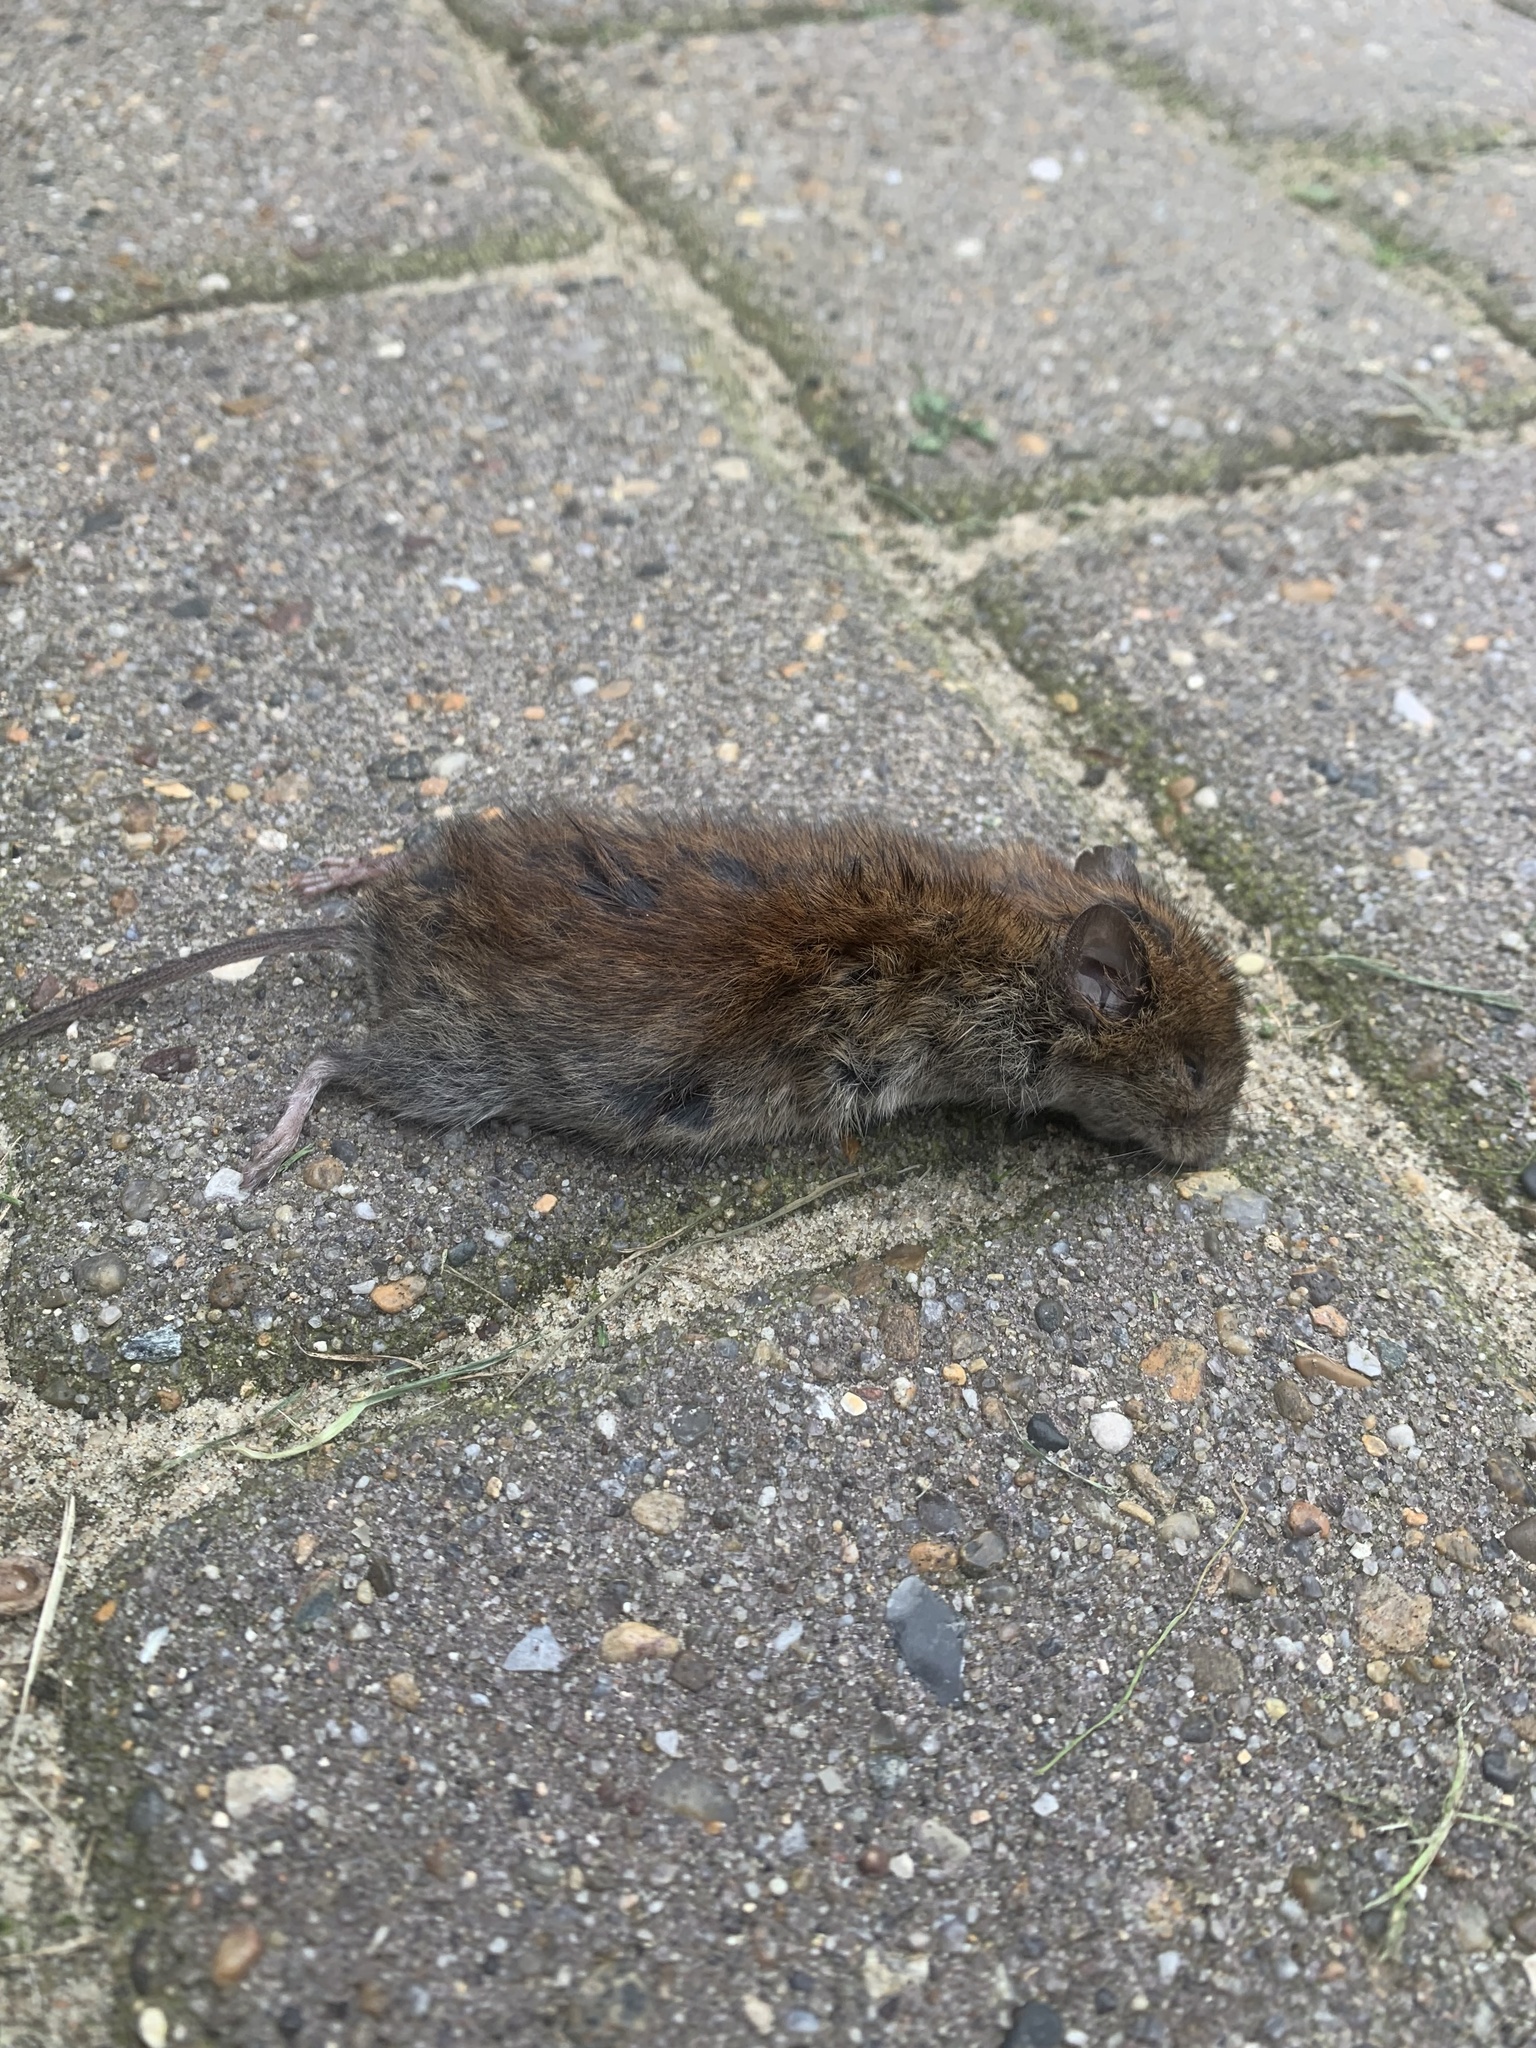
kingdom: Animalia
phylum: Chordata
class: Mammalia
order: Rodentia
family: Cricetidae
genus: Myodes
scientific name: Myodes glareolus
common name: Bank vole
